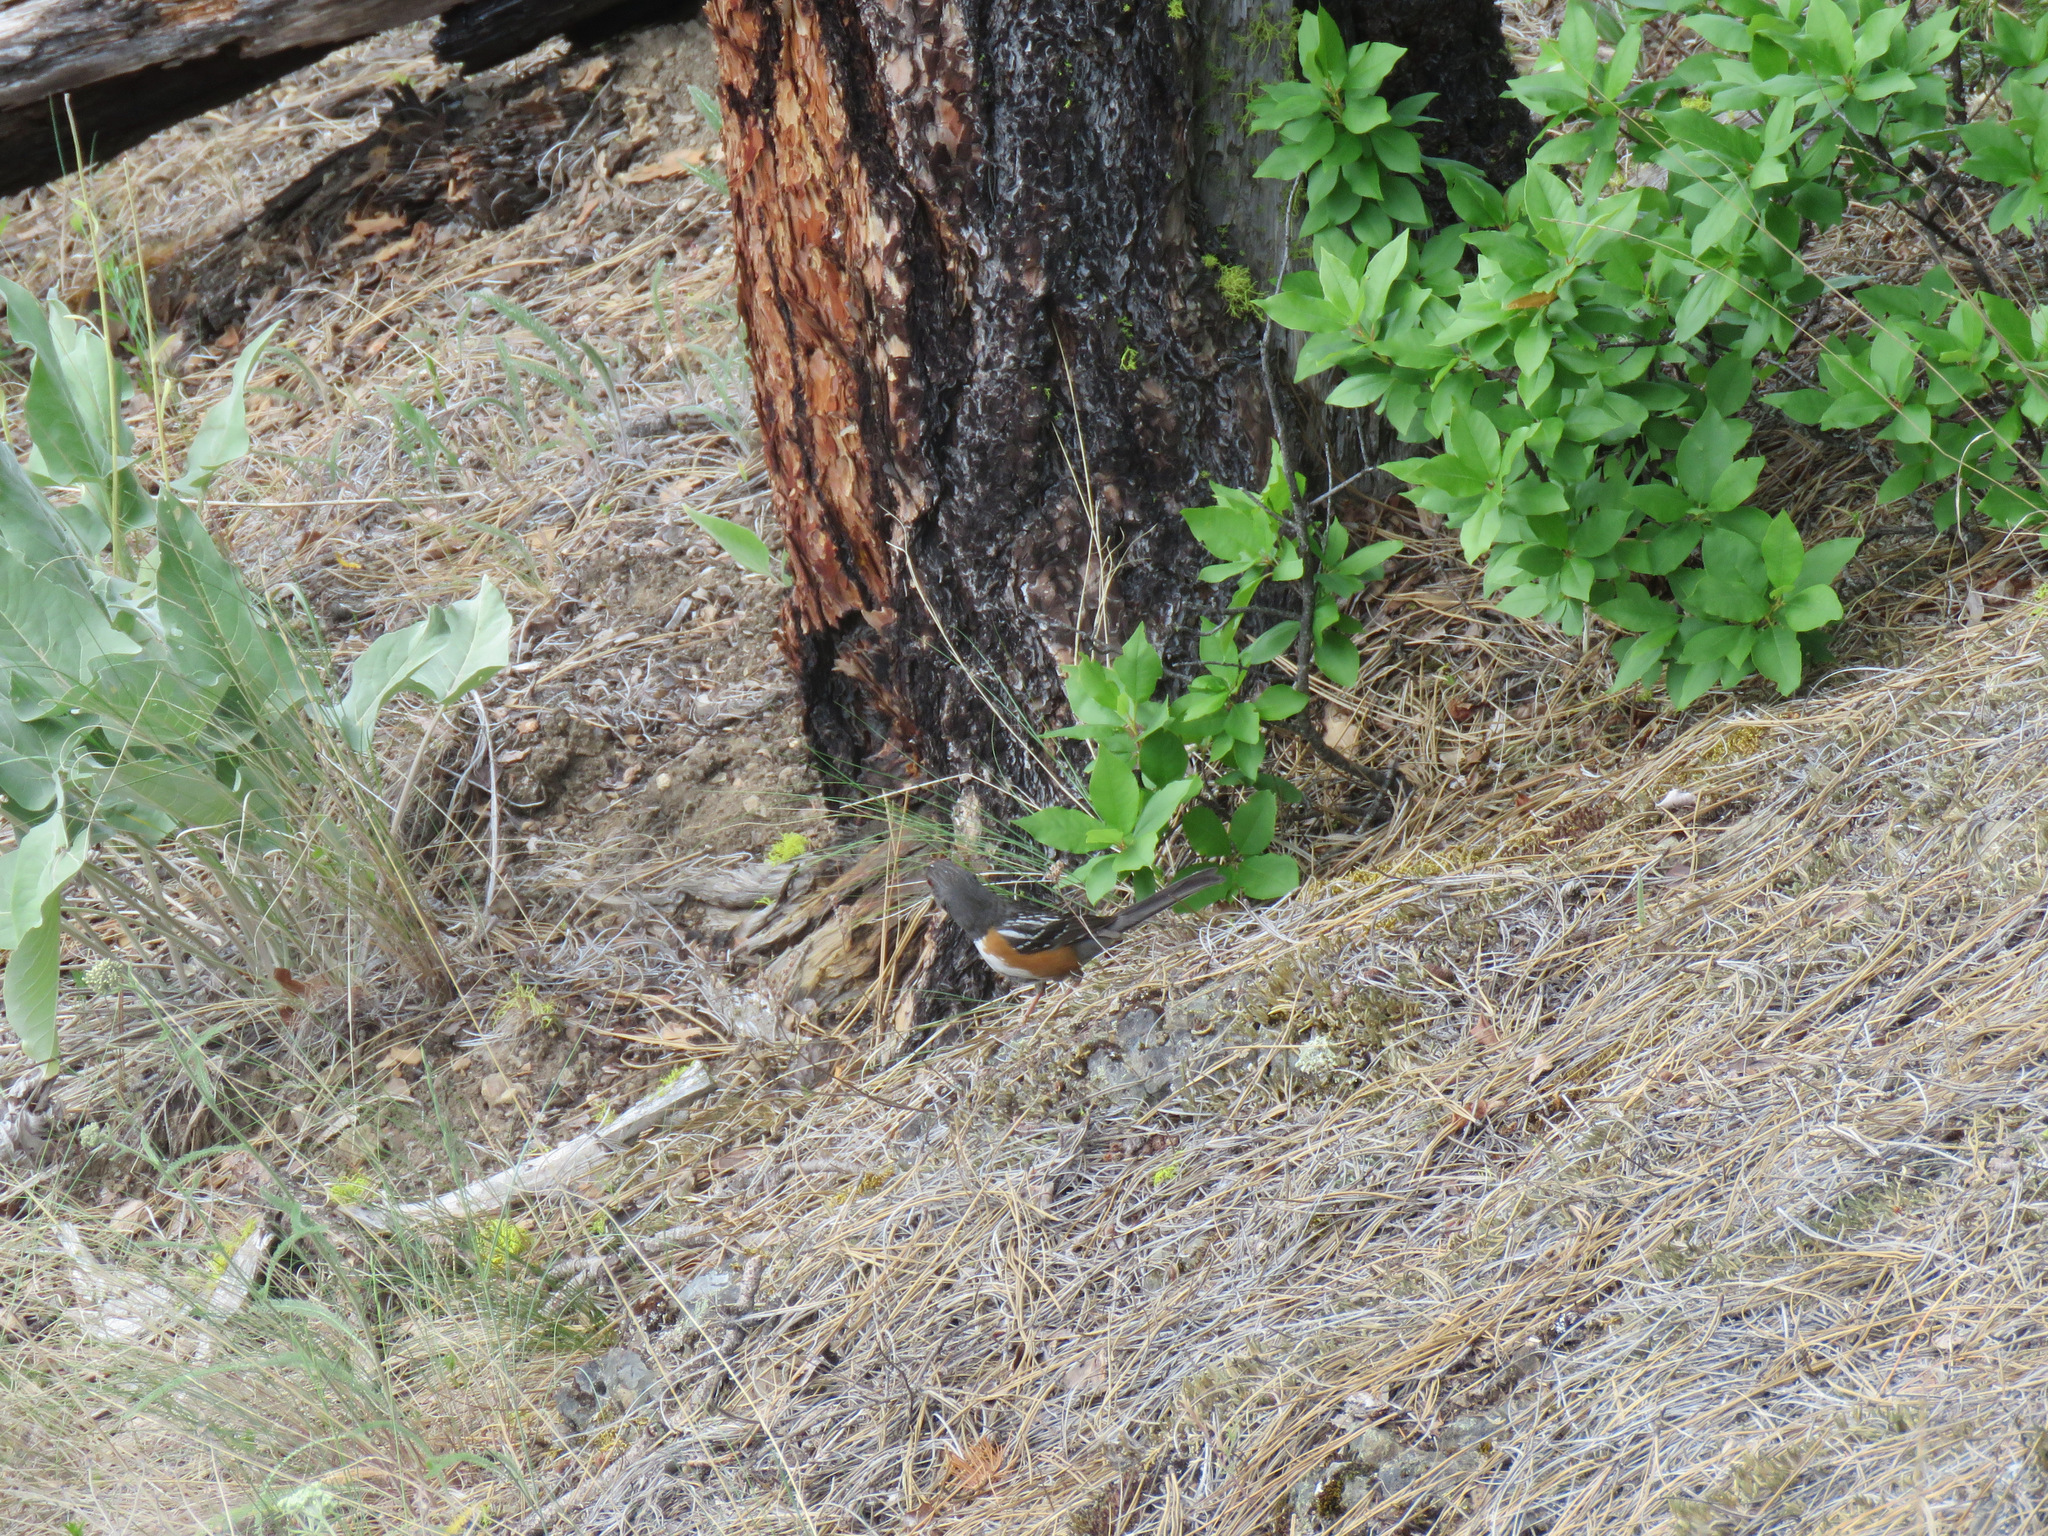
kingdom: Animalia
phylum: Chordata
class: Aves
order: Passeriformes
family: Passerellidae
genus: Pipilo
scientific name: Pipilo maculatus
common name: Spotted towhee
